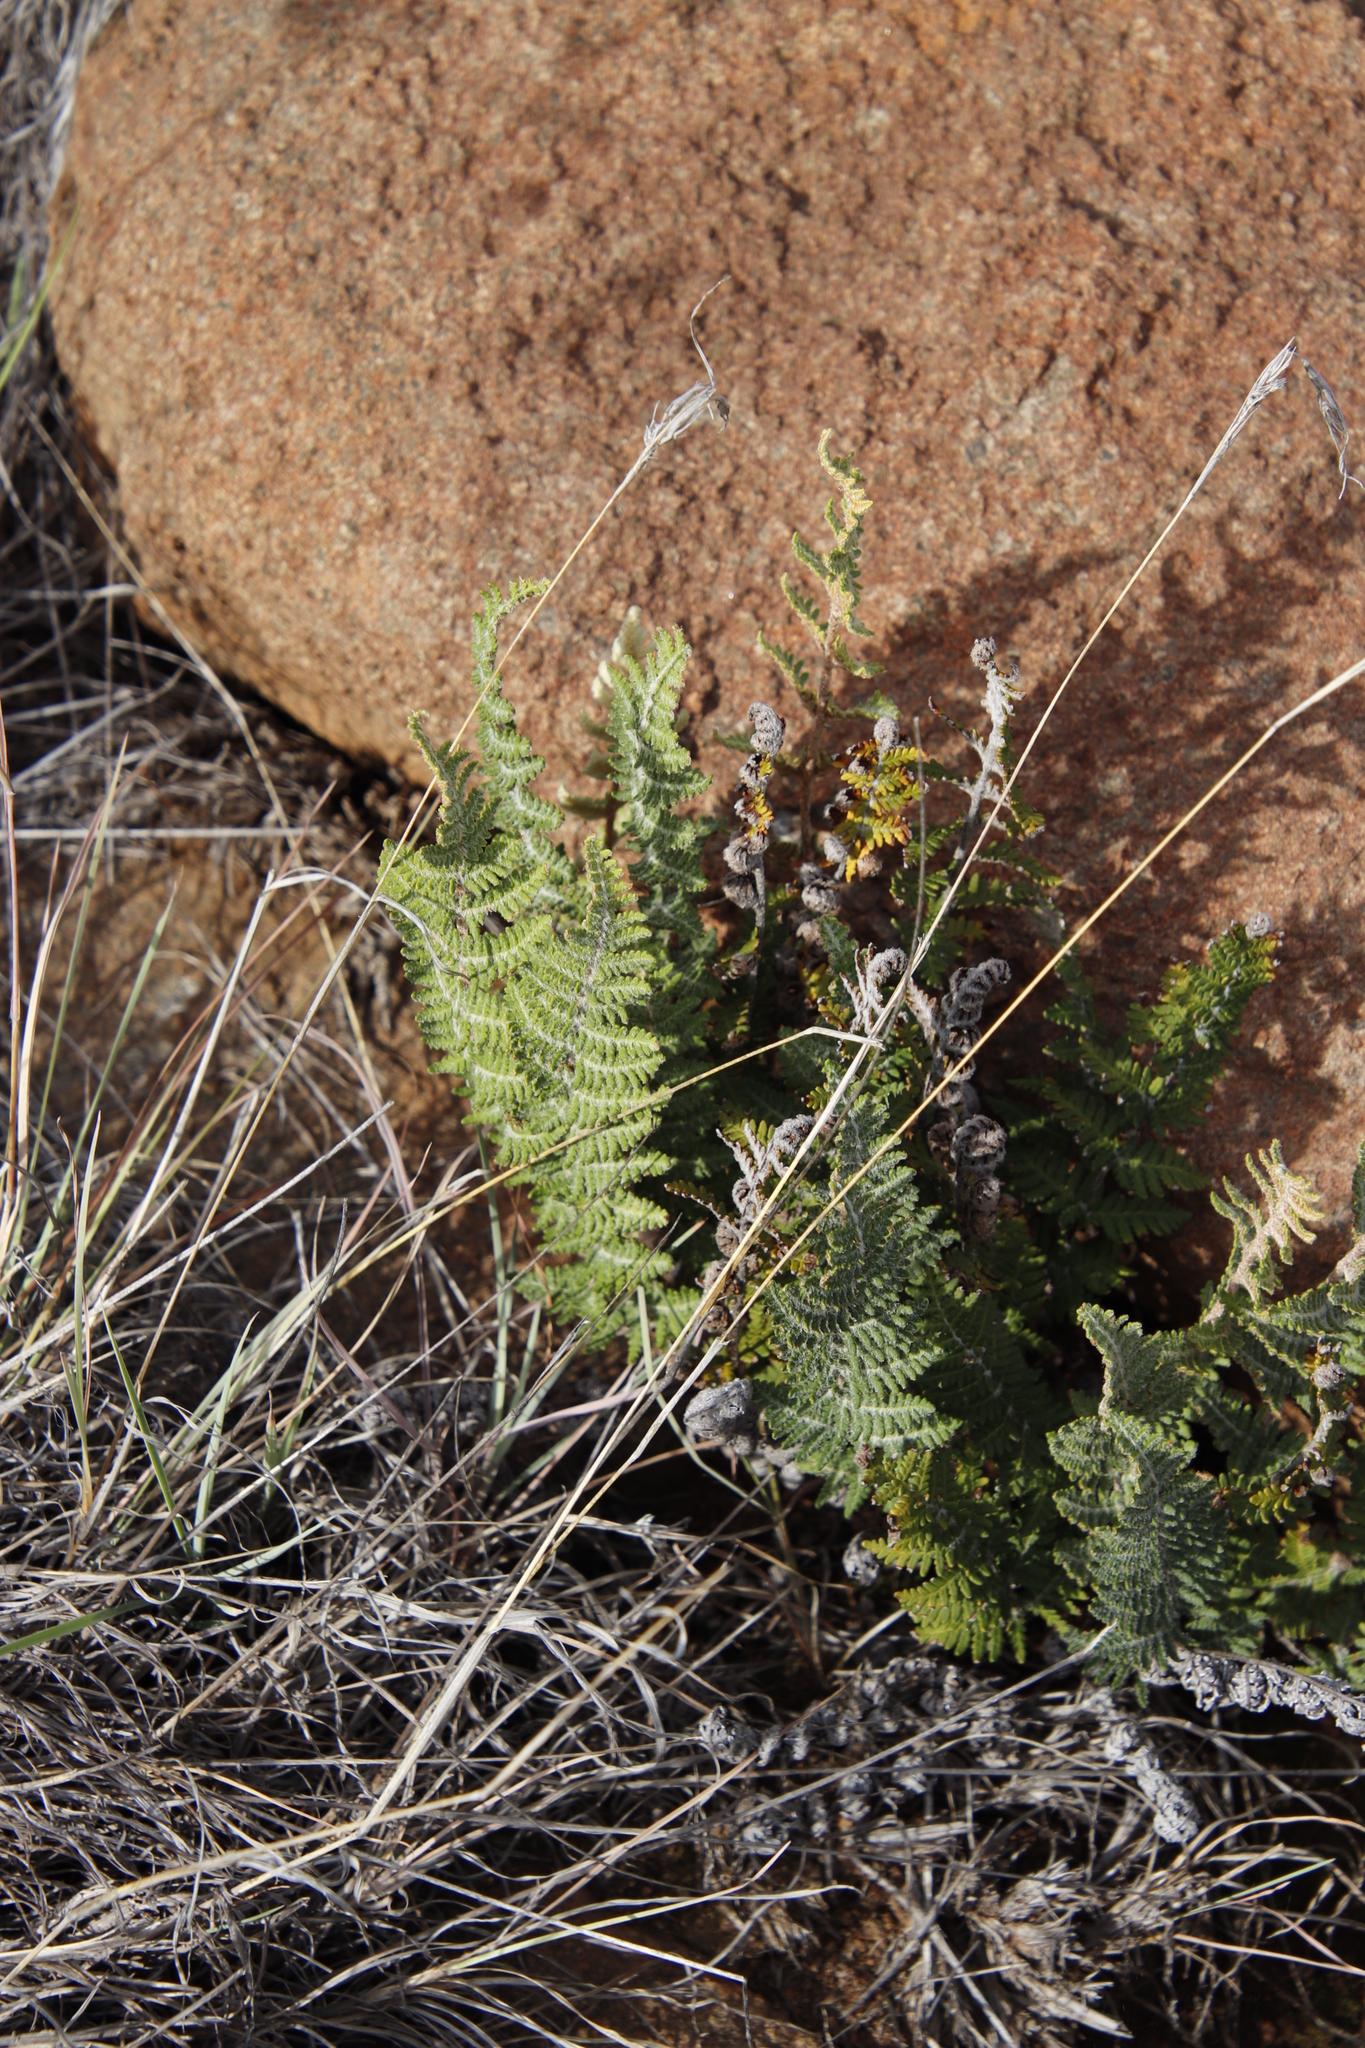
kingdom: Plantae
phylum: Tracheophyta
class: Polypodiopsida
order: Polypodiales
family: Pteridaceae
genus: Cheilanthes
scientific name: Cheilanthes eckloniana
